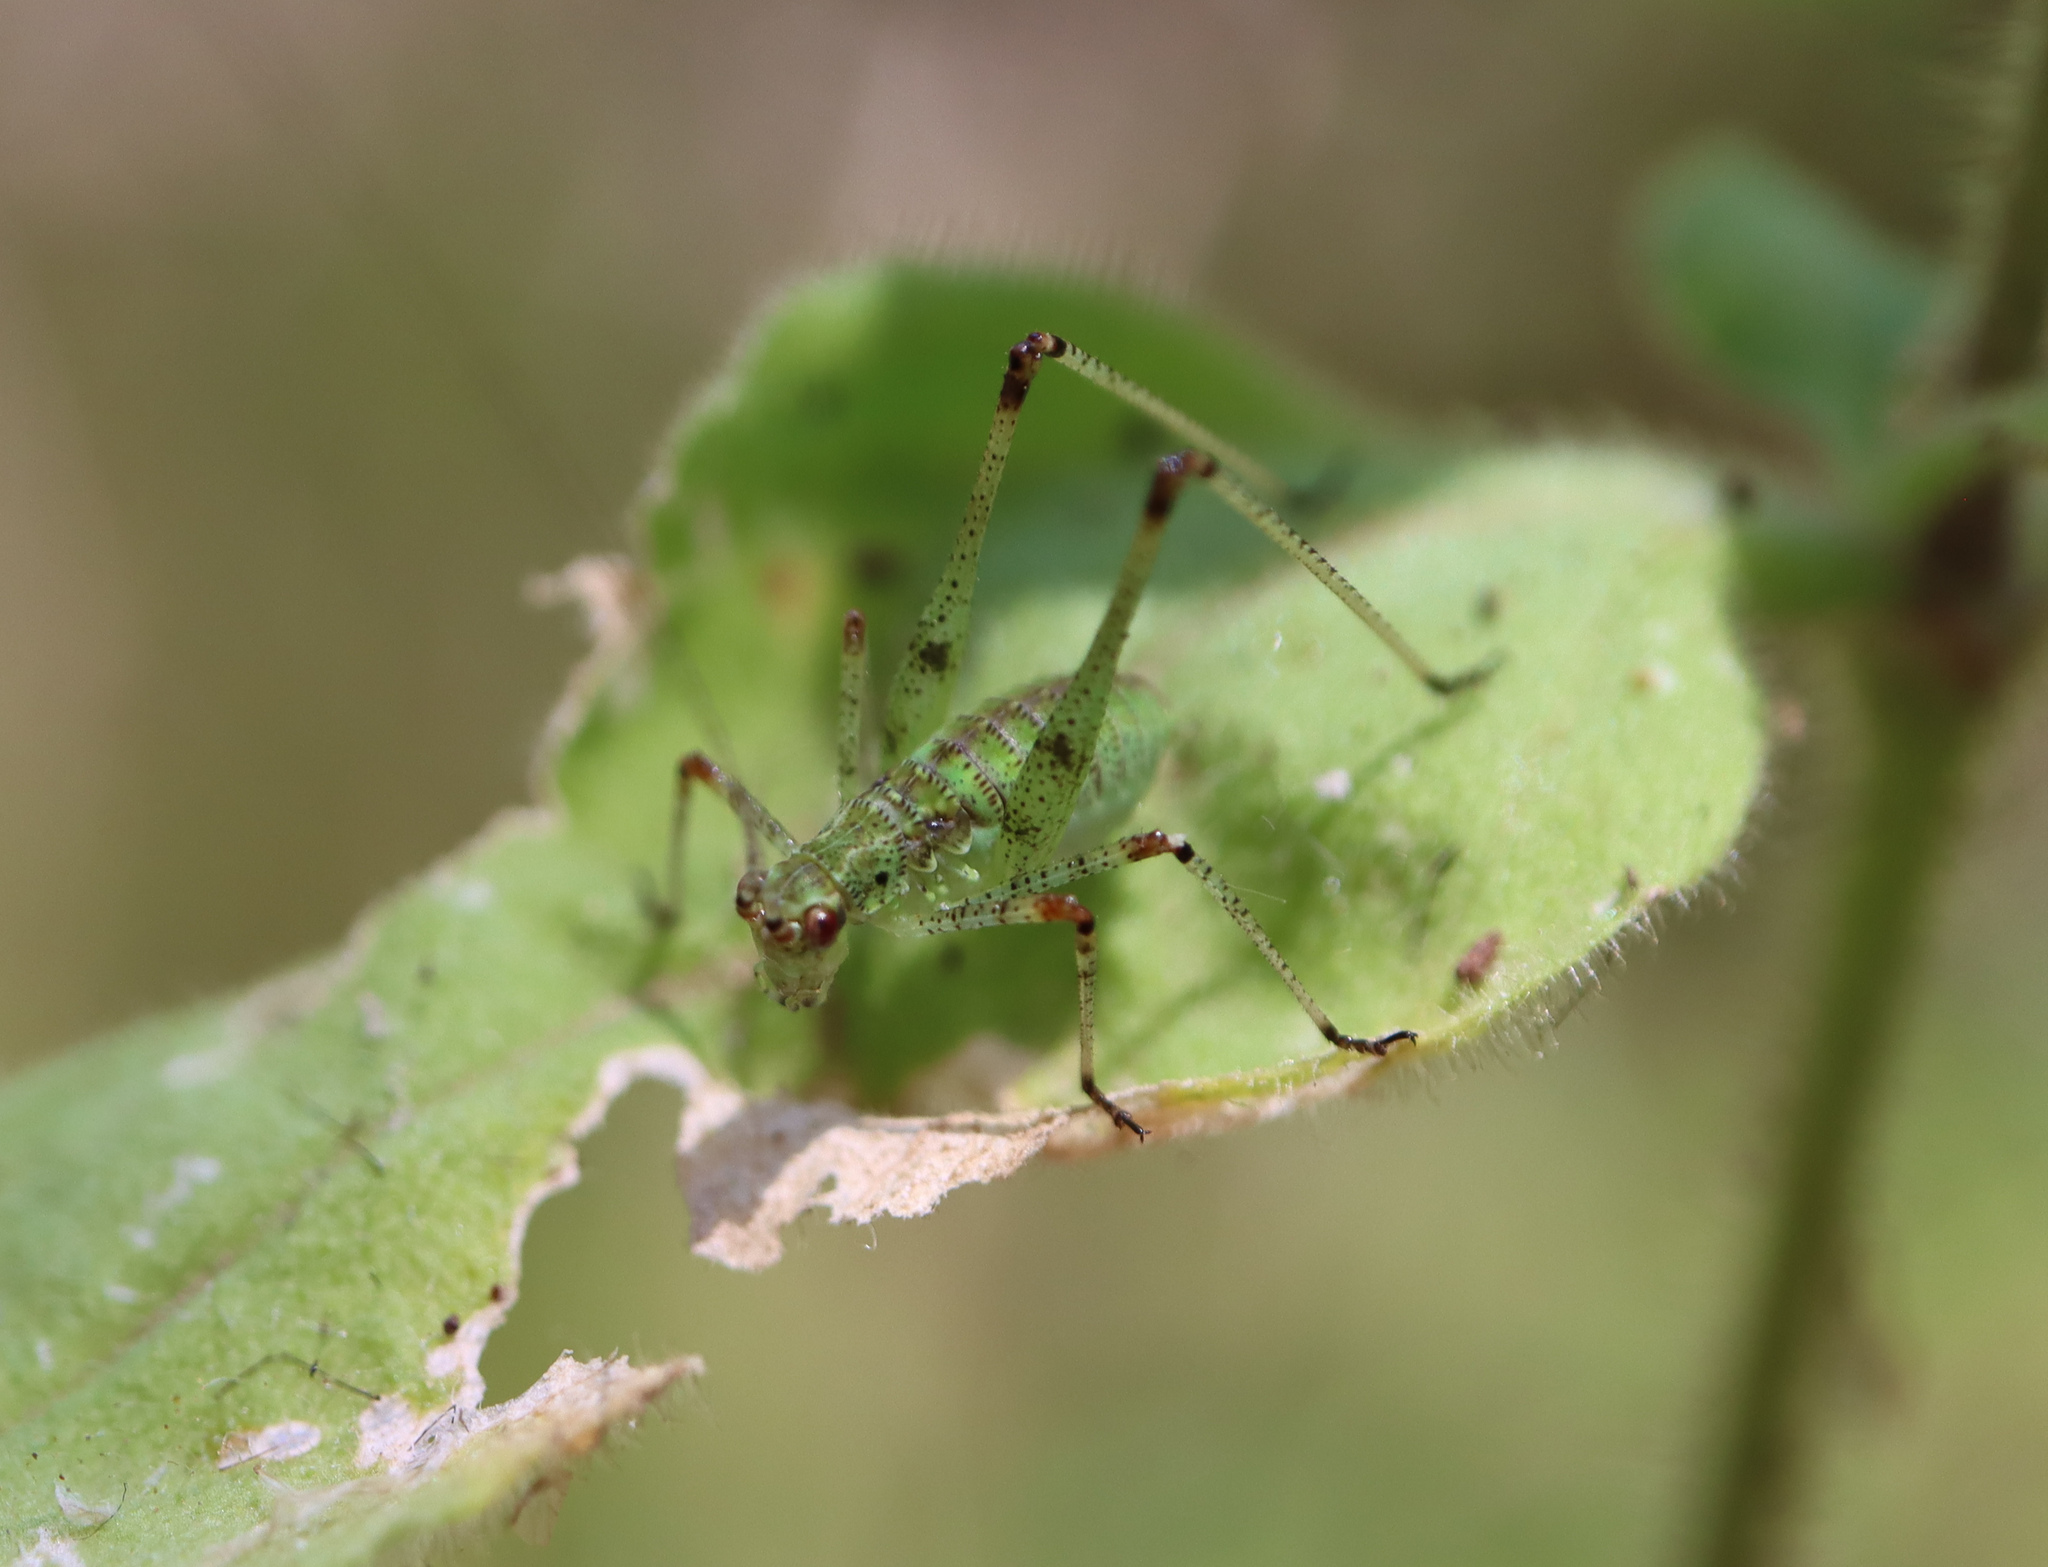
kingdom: Animalia
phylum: Arthropoda
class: Insecta
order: Orthoptera
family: Tettigoniidae
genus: Phaneroptera
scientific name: Phaneroptera nana
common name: Southern sickle bush-cricket
